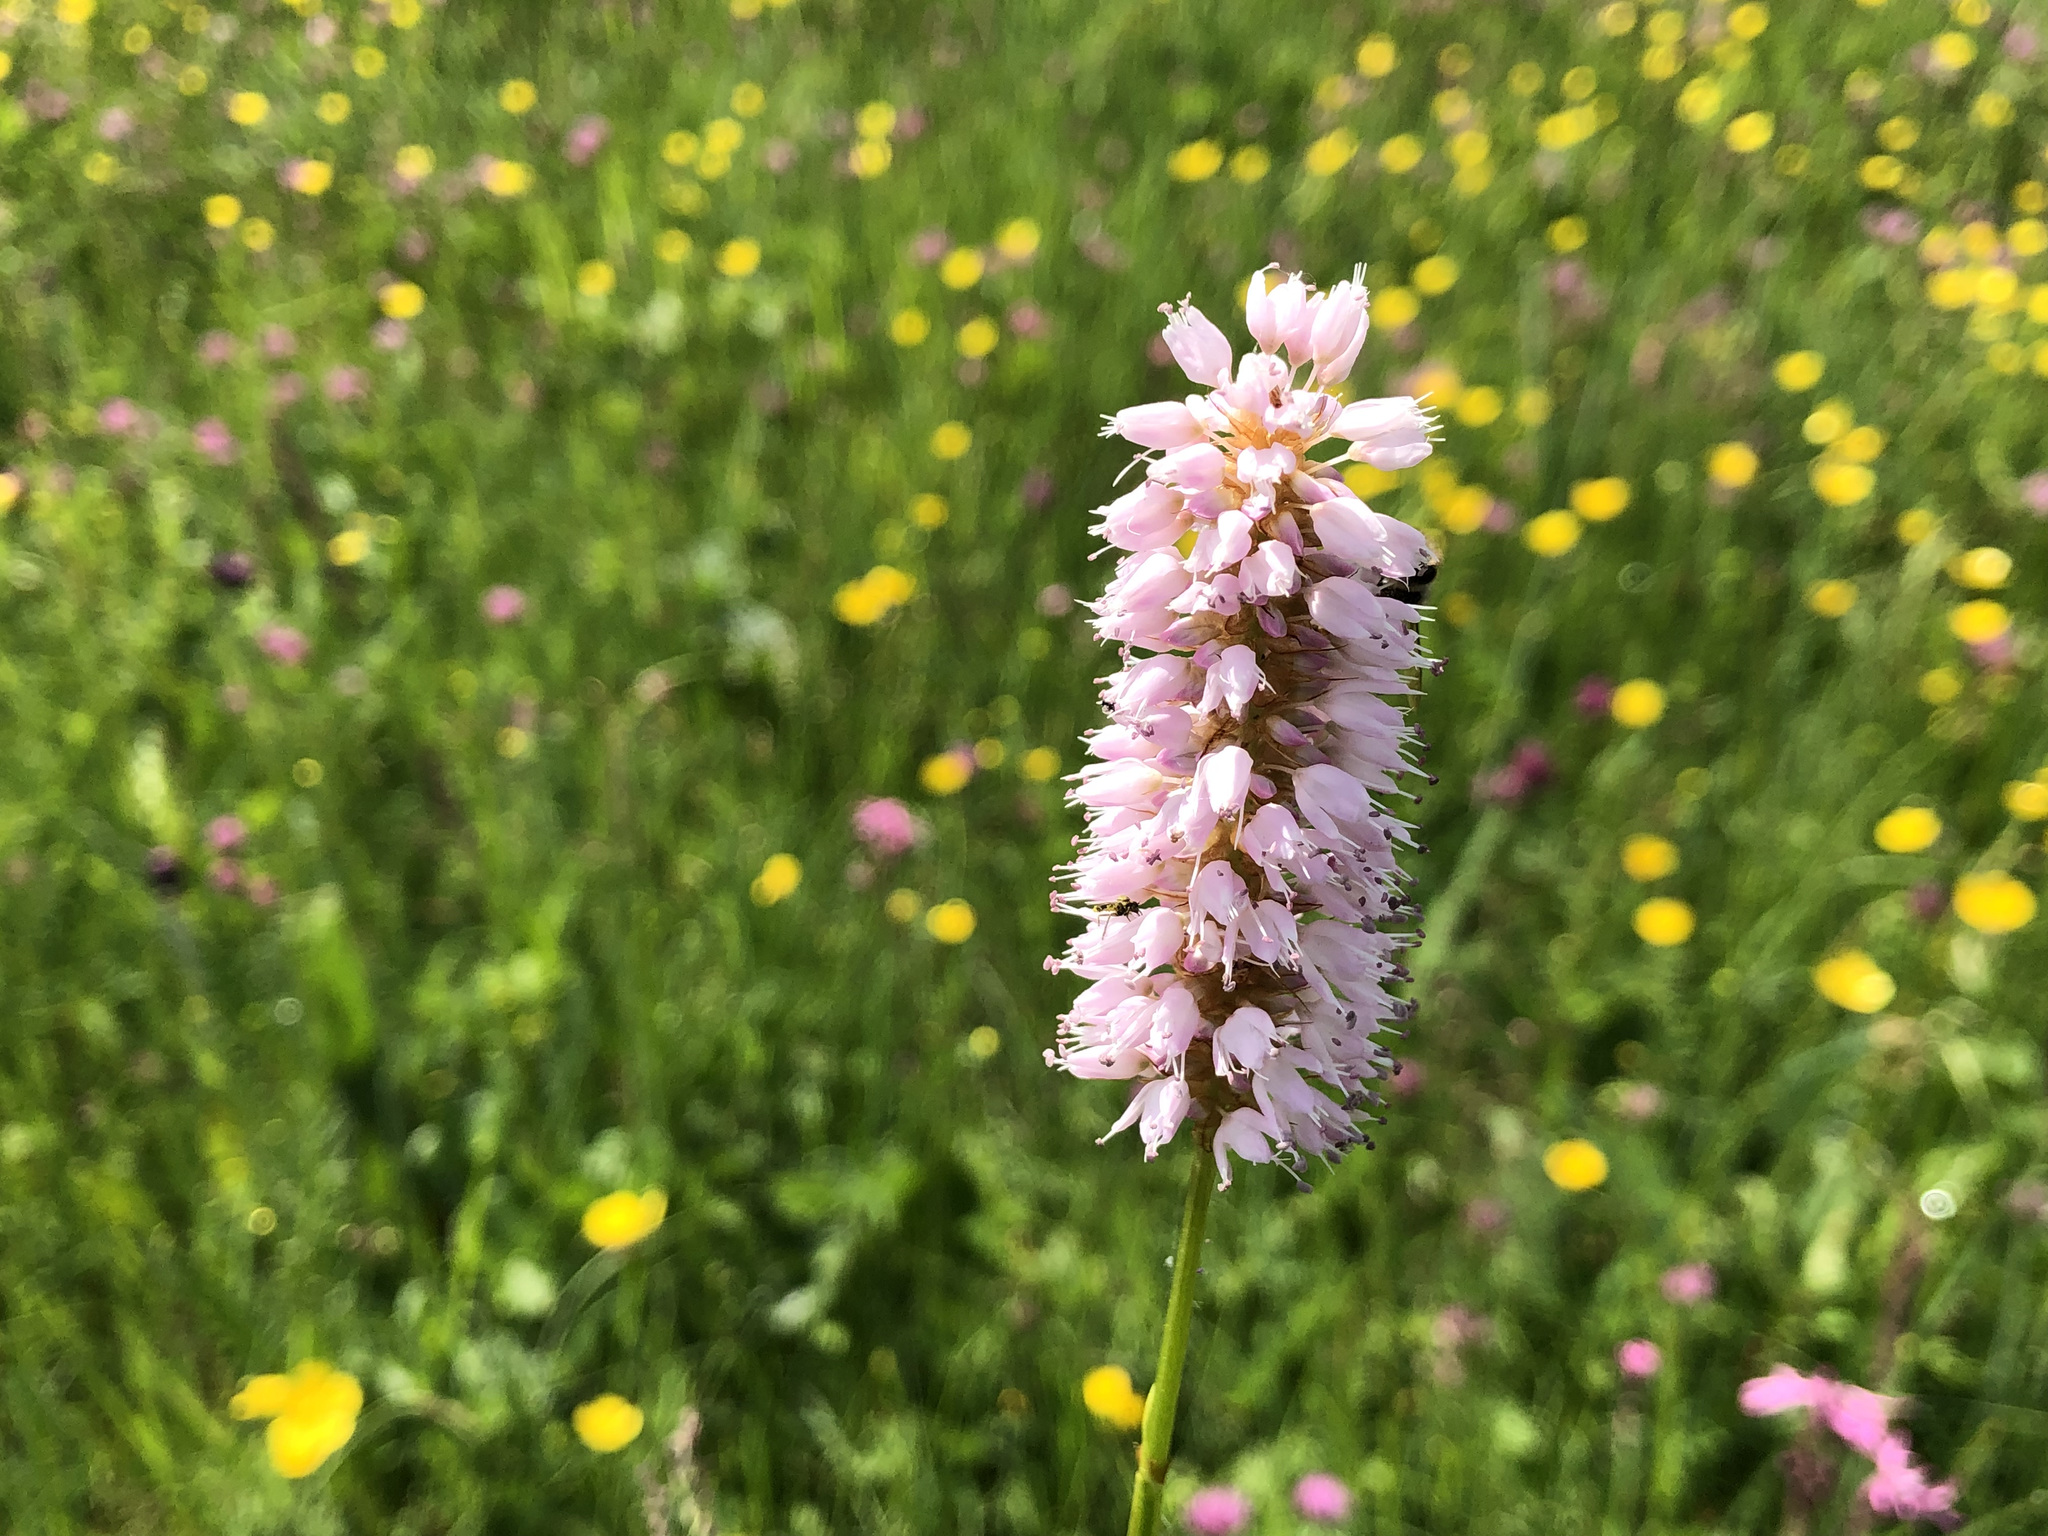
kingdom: Plantae
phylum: Tracheophyta
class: Magnoliopsida
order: Caryophyllales
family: Polygonaceae
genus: Bistorta
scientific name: Bistorta officinalis
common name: Common bistort
